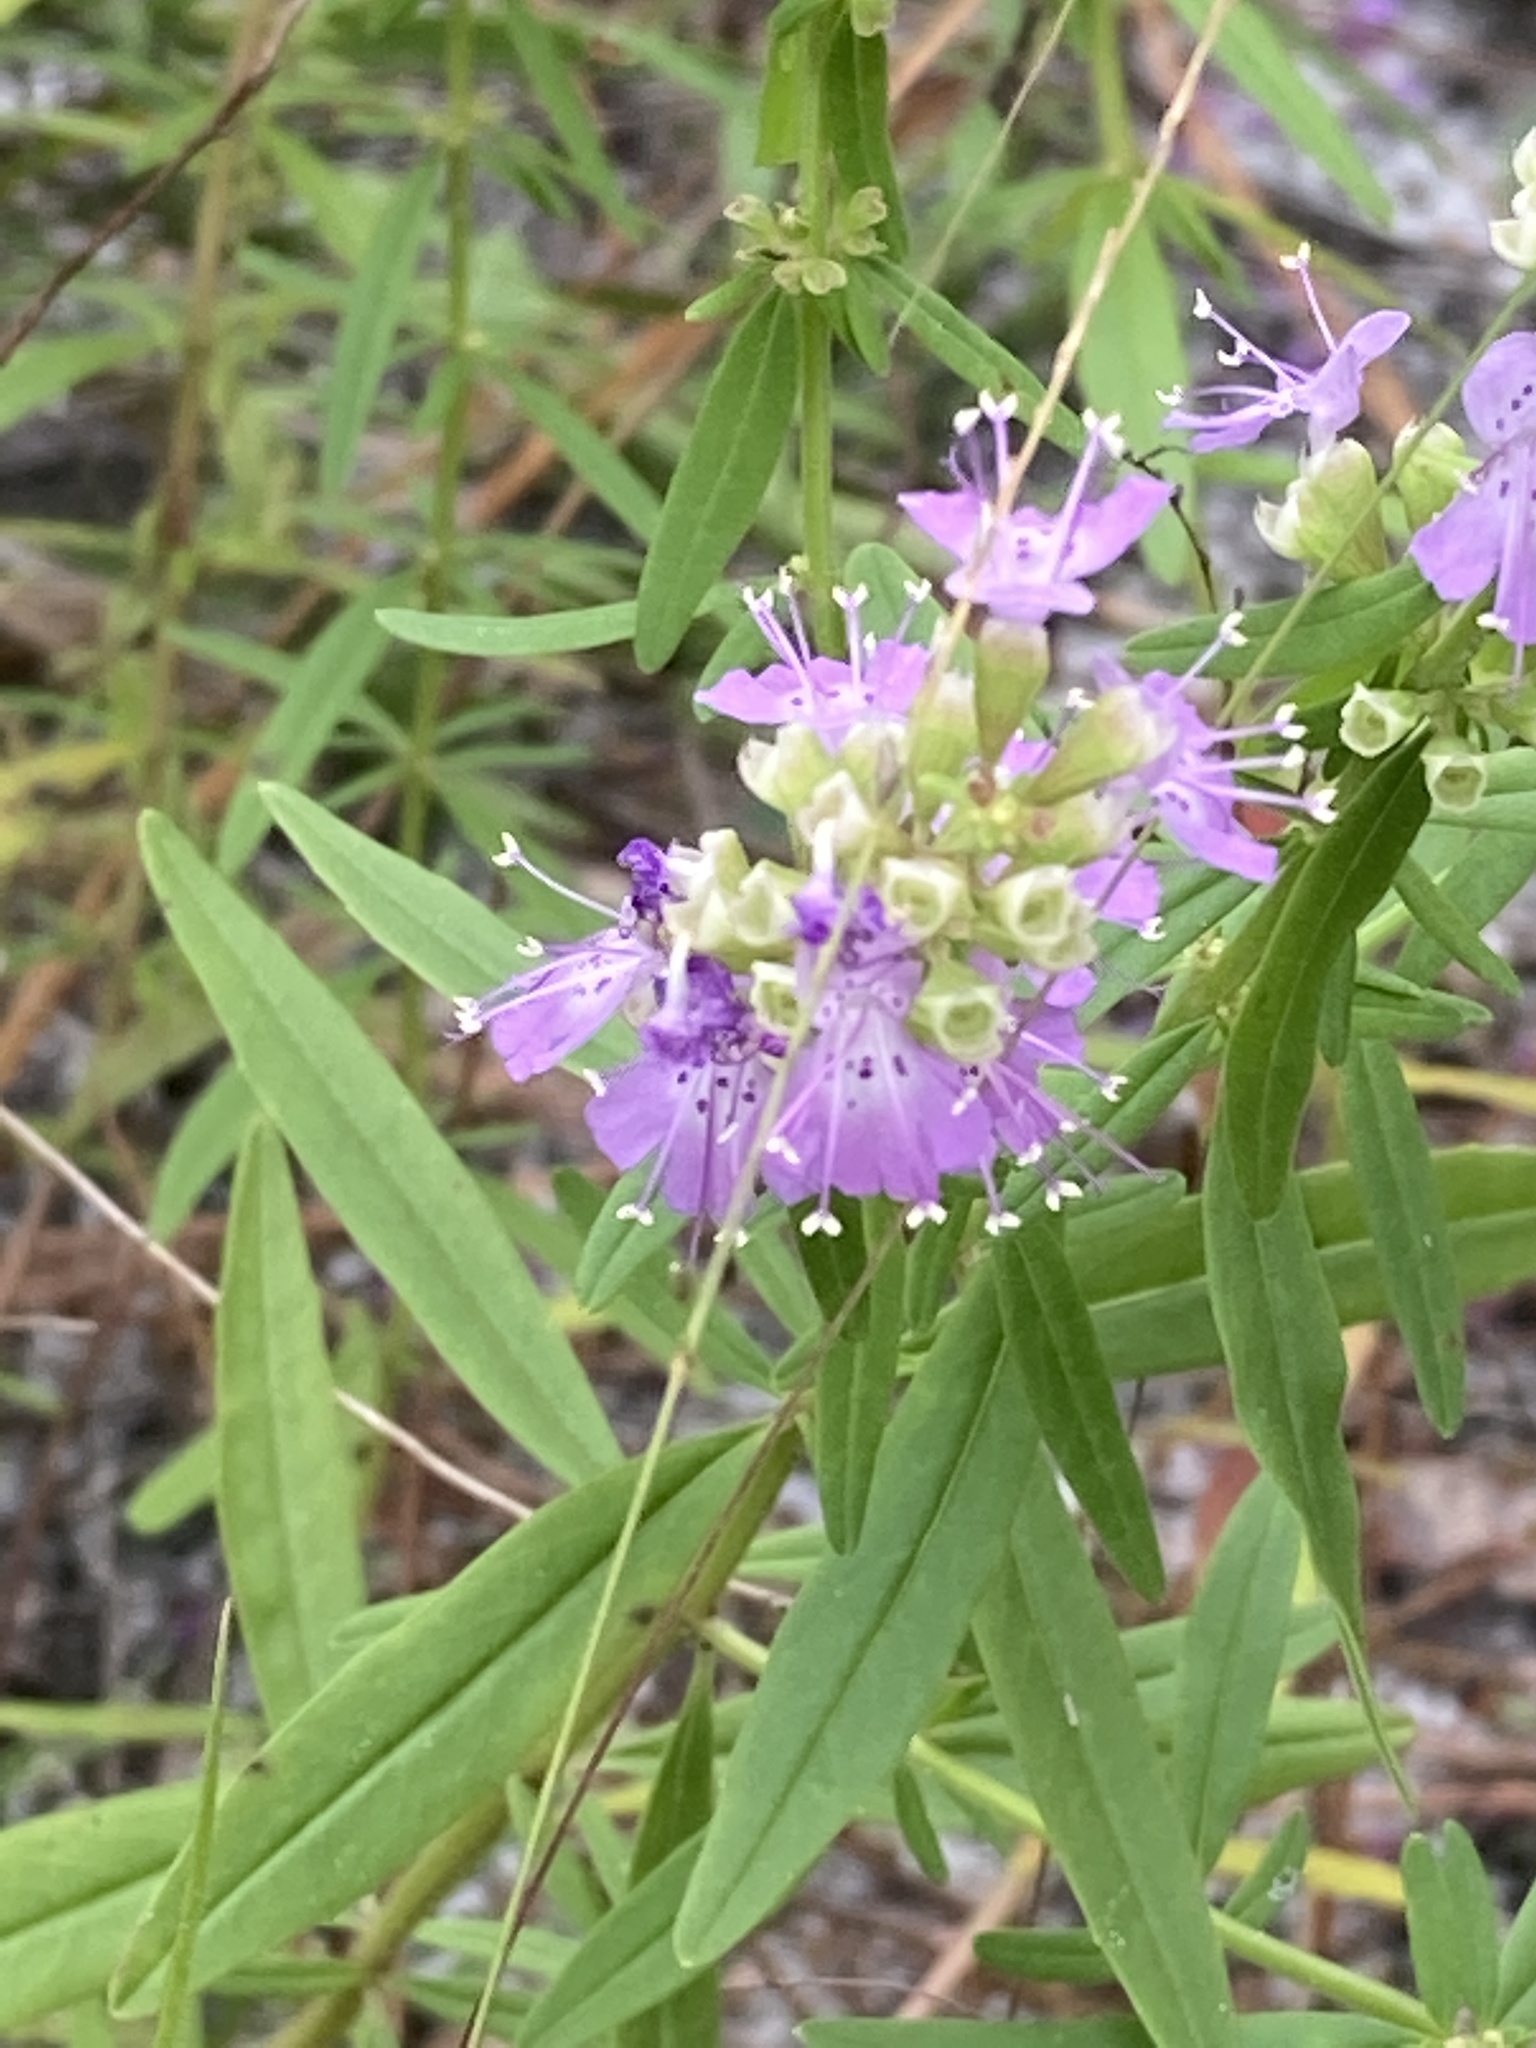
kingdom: Plantae
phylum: Tracheophyta
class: Magnoliopsida
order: Lamiales
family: Lamiaceae
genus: Dicerandra
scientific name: Dicerandra densiflora
